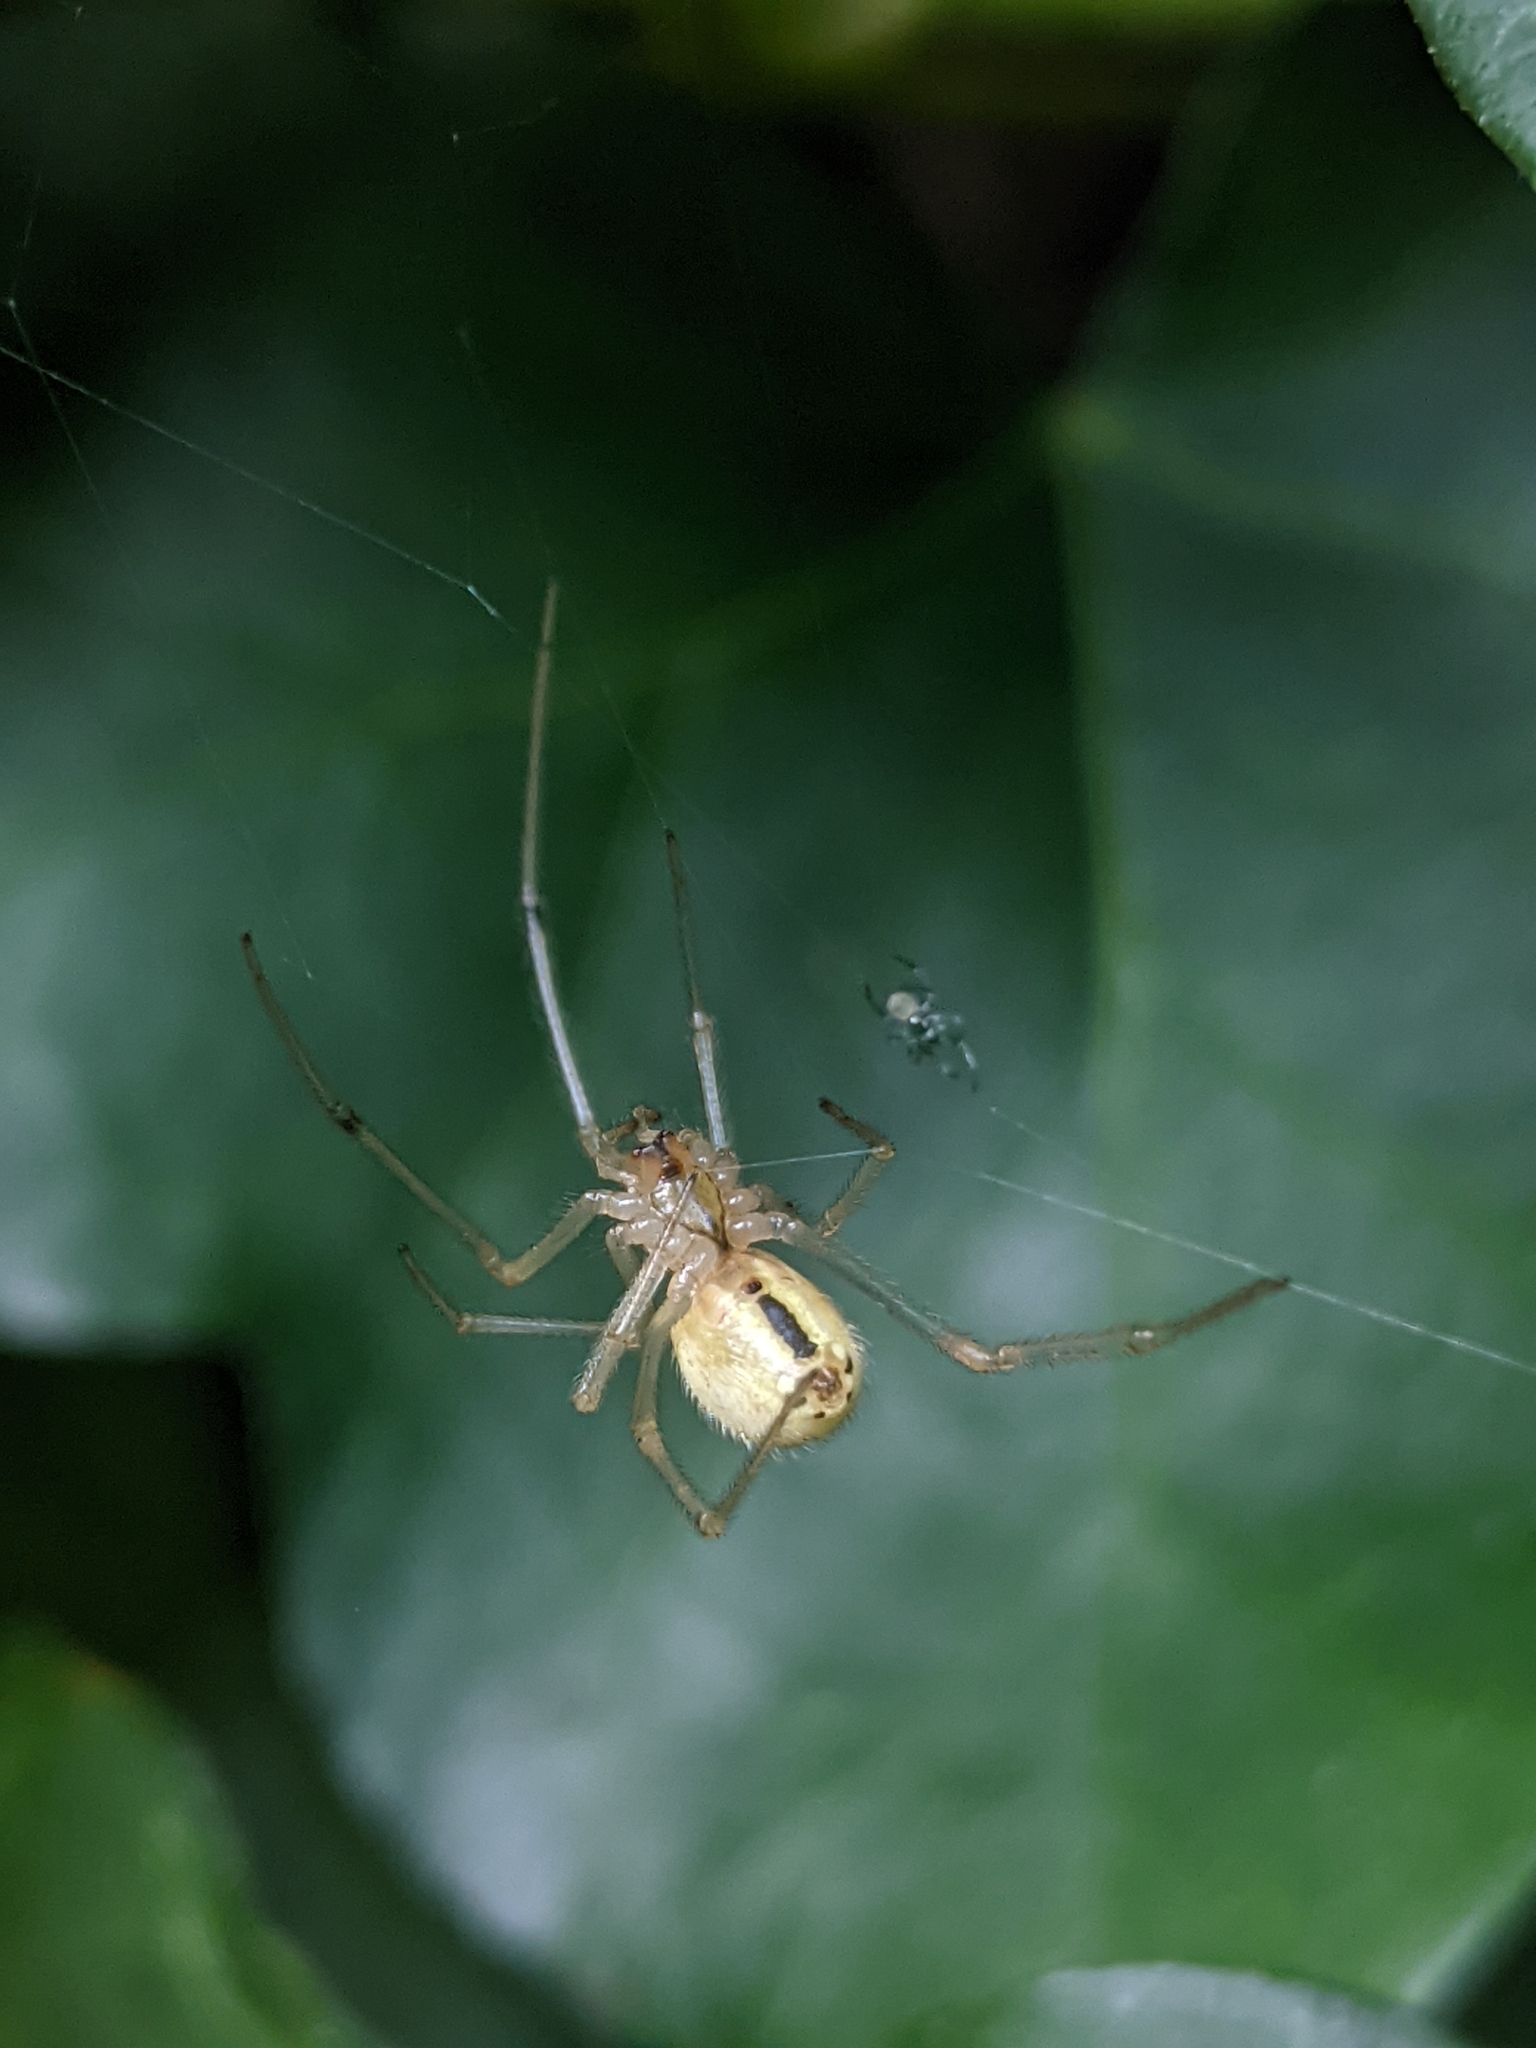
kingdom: Animalia
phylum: Arthropoda
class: Arachnida
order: Araneae
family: Theridiidae
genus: Enoplognatha
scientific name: Enoplognatha ovata
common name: Common candy-striped spider
